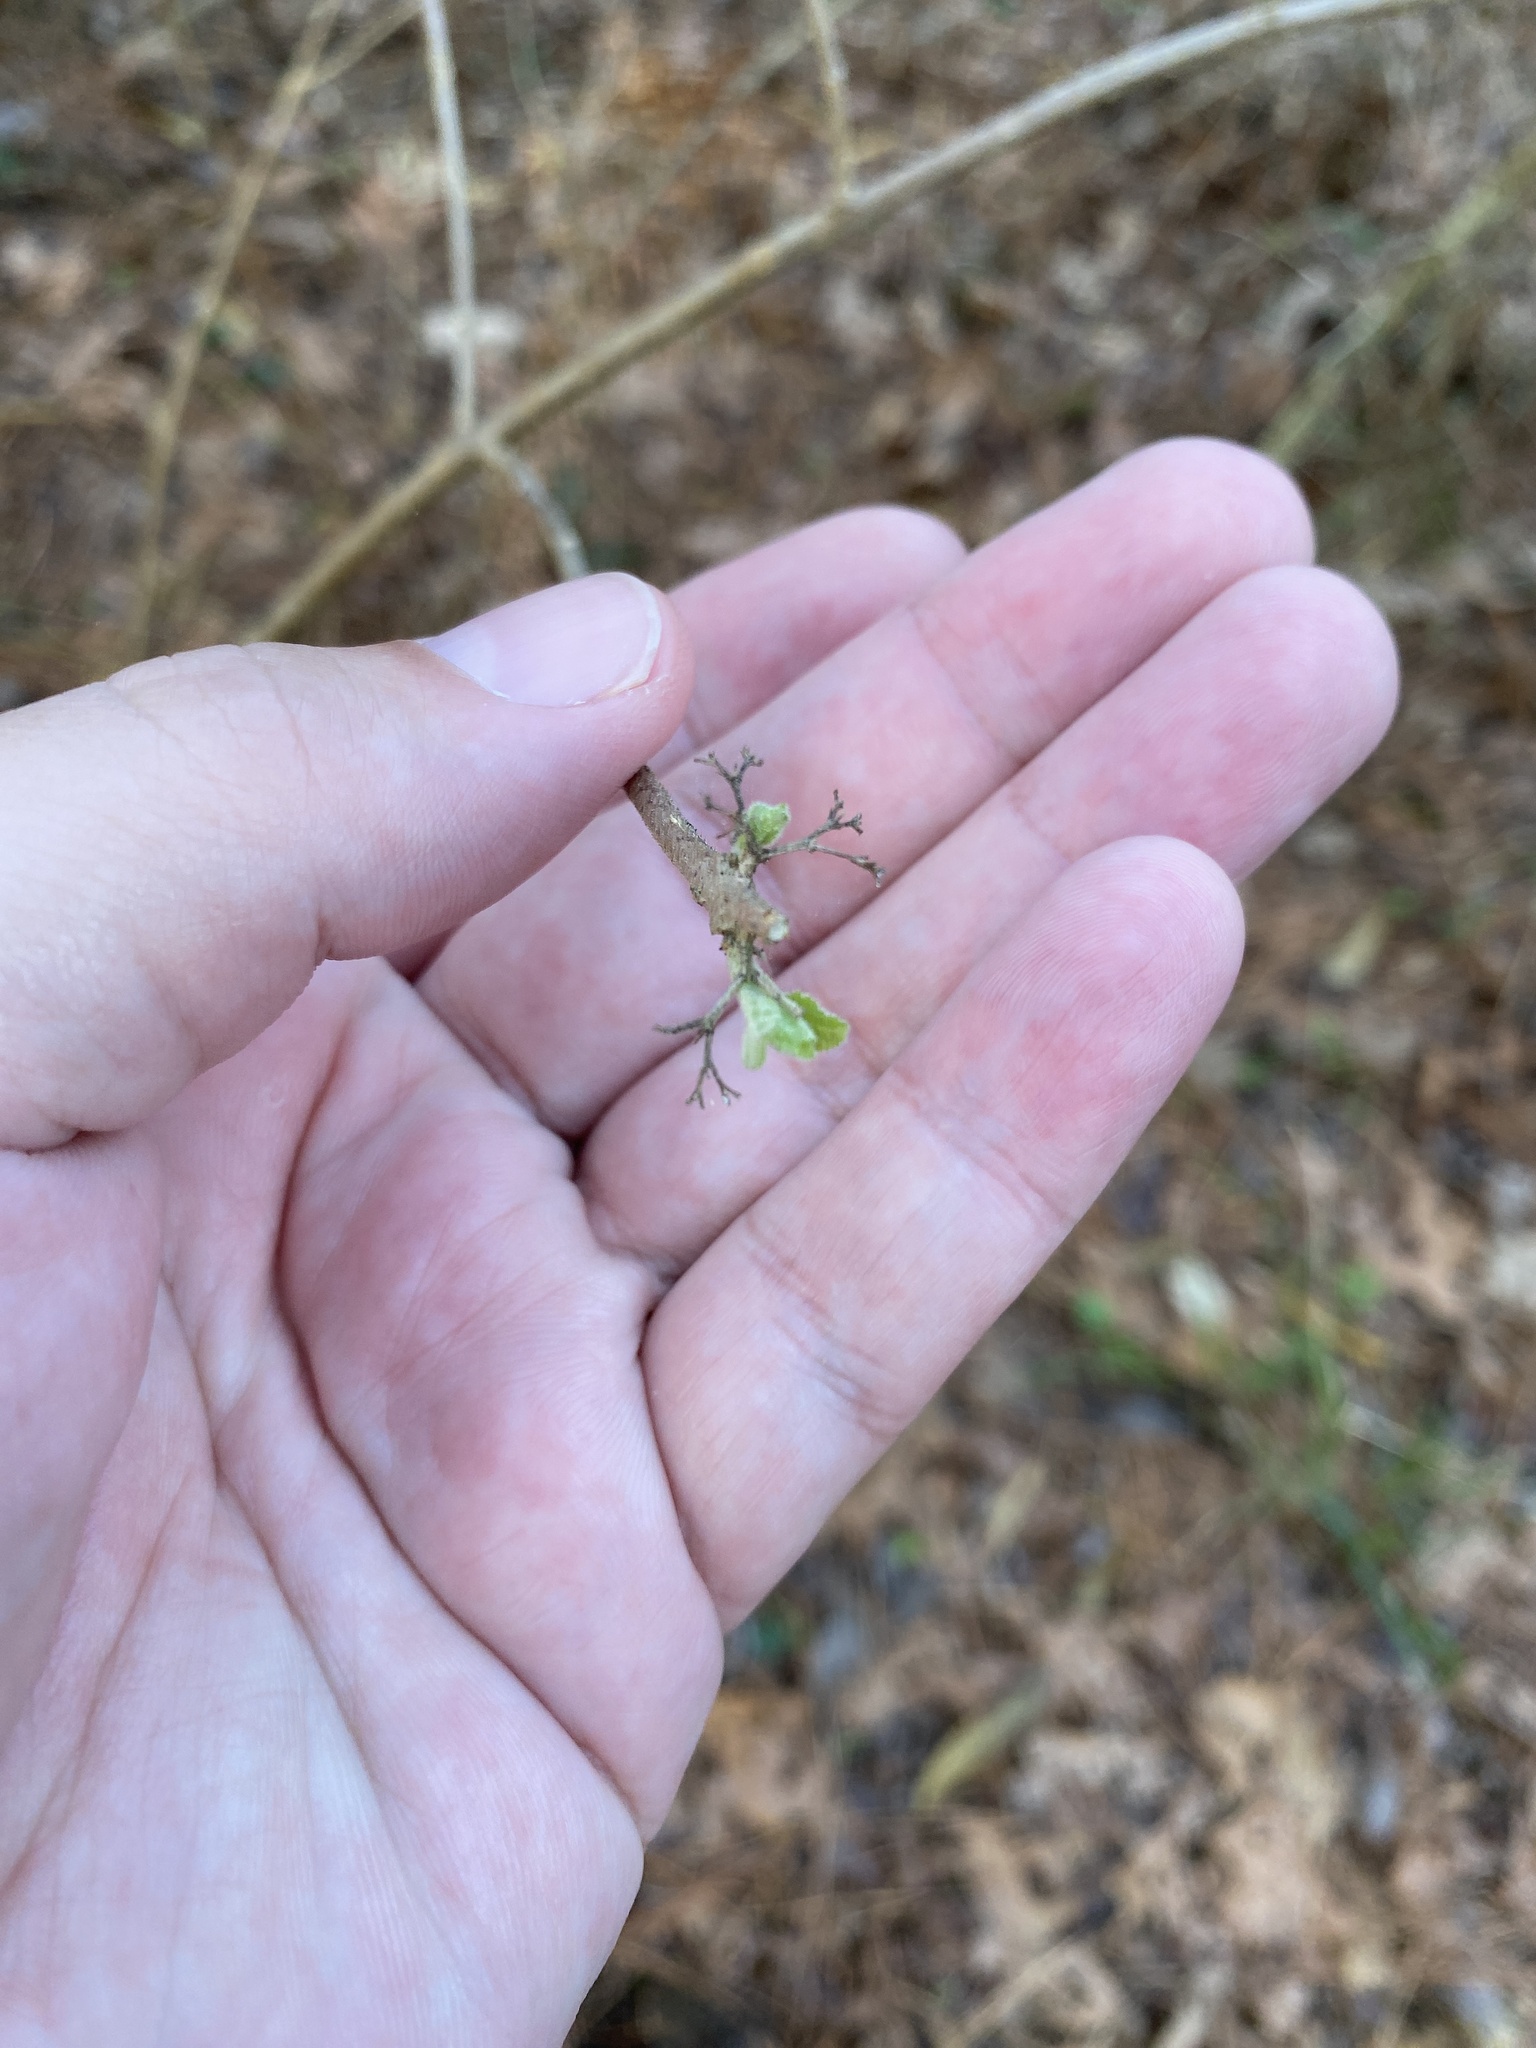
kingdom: Plantae
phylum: Tracheophyta
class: Magnoliopsida
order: Lamiales
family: Lamiaceae
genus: Callicarpa
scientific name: Callicarpa americana
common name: American beautyberry
